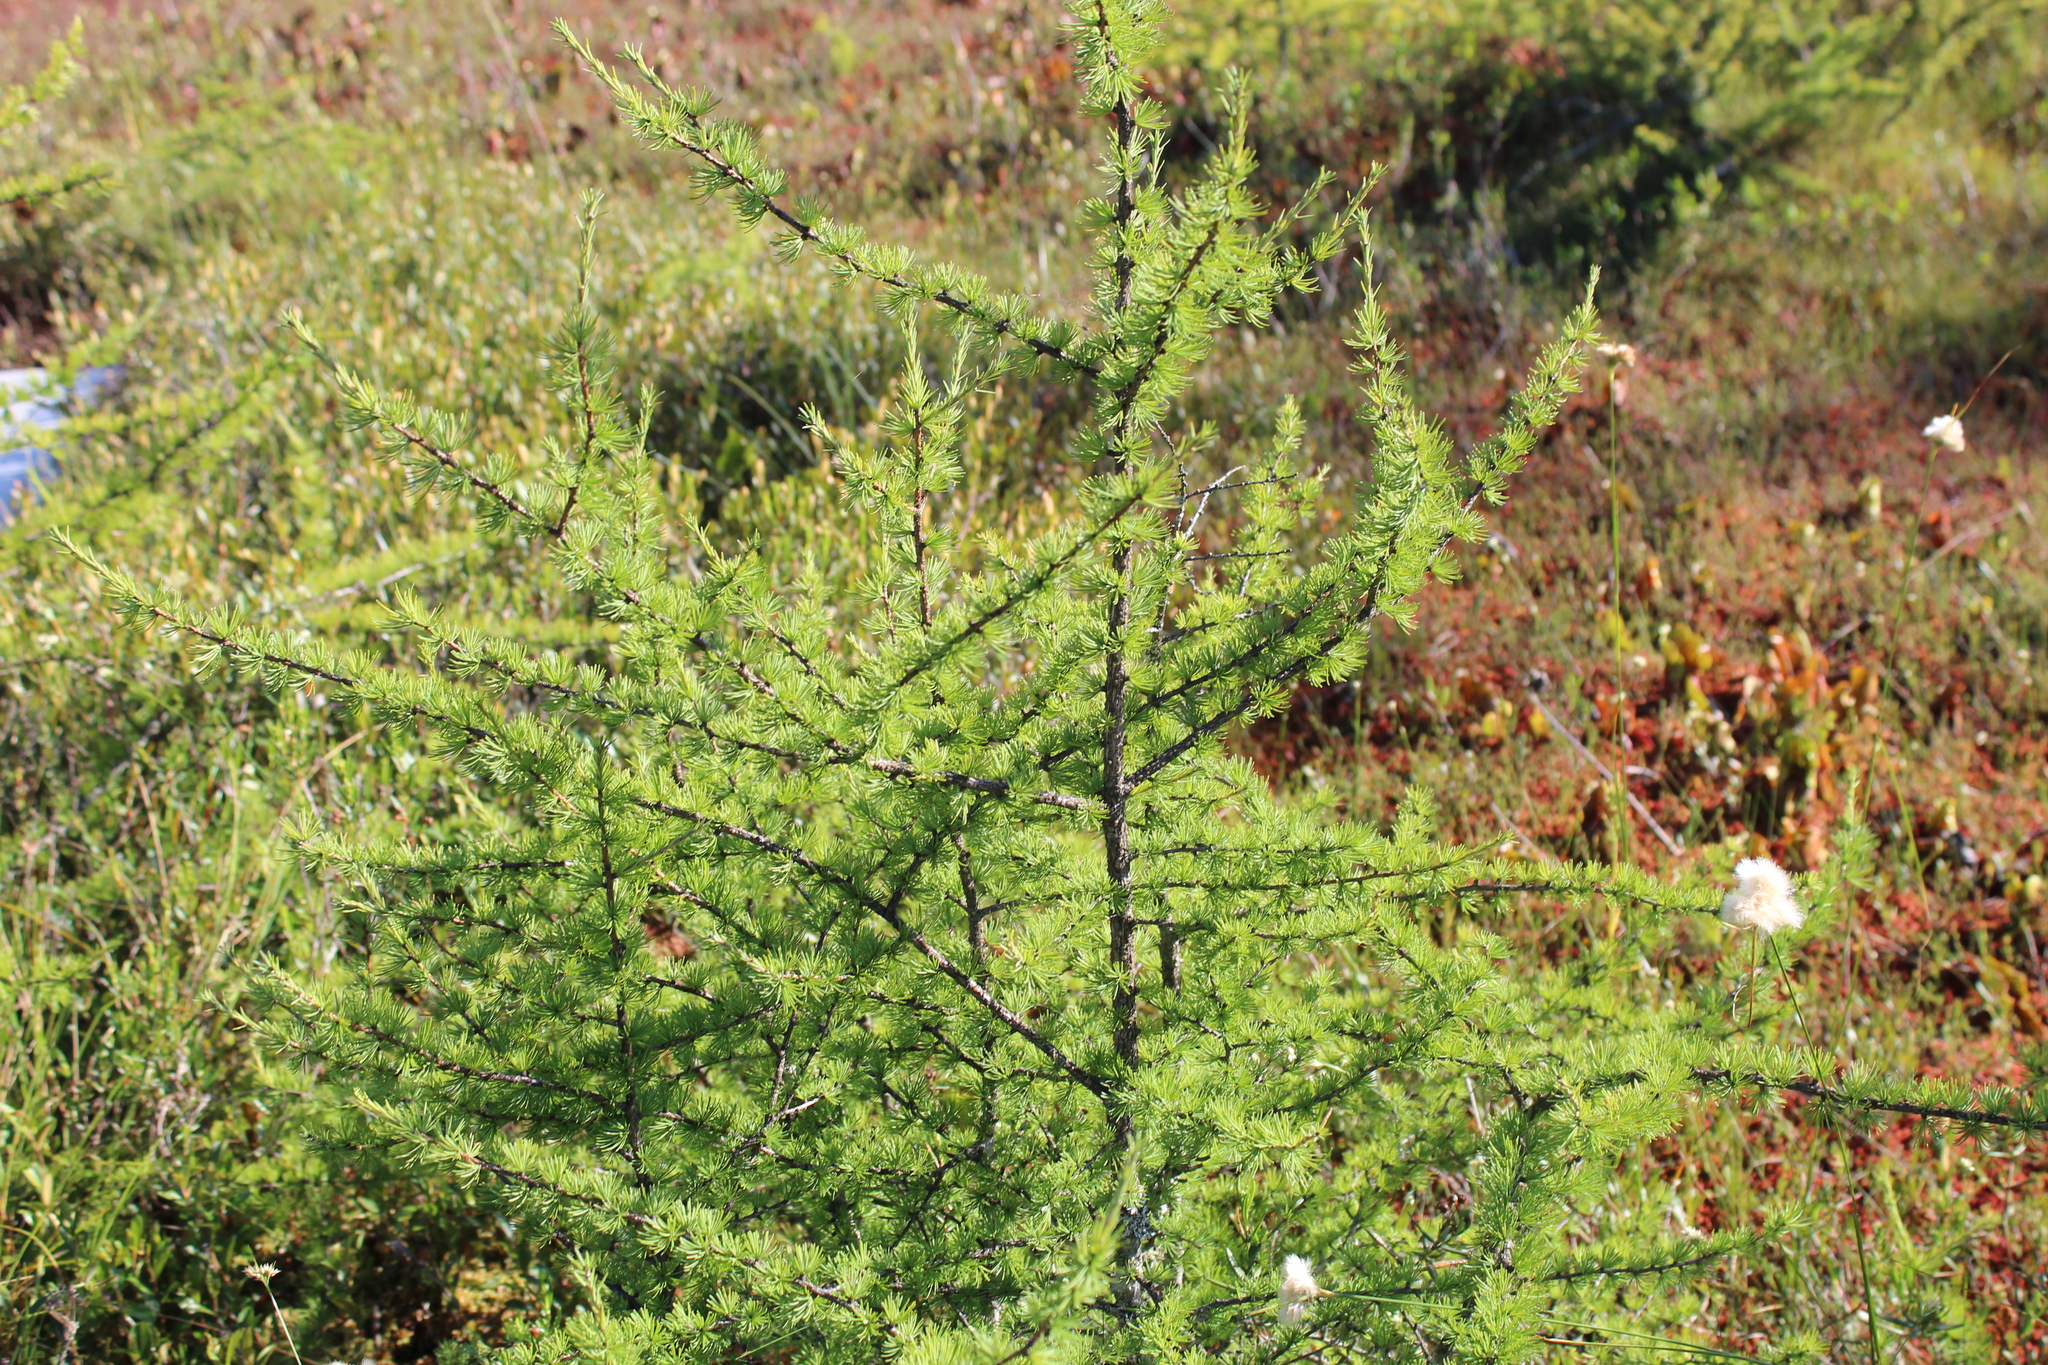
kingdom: Plantae
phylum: Tracheophyta
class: Pinopsida
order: Pinales
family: Pinaceae
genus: Larix
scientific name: Larix laricina
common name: American larch
